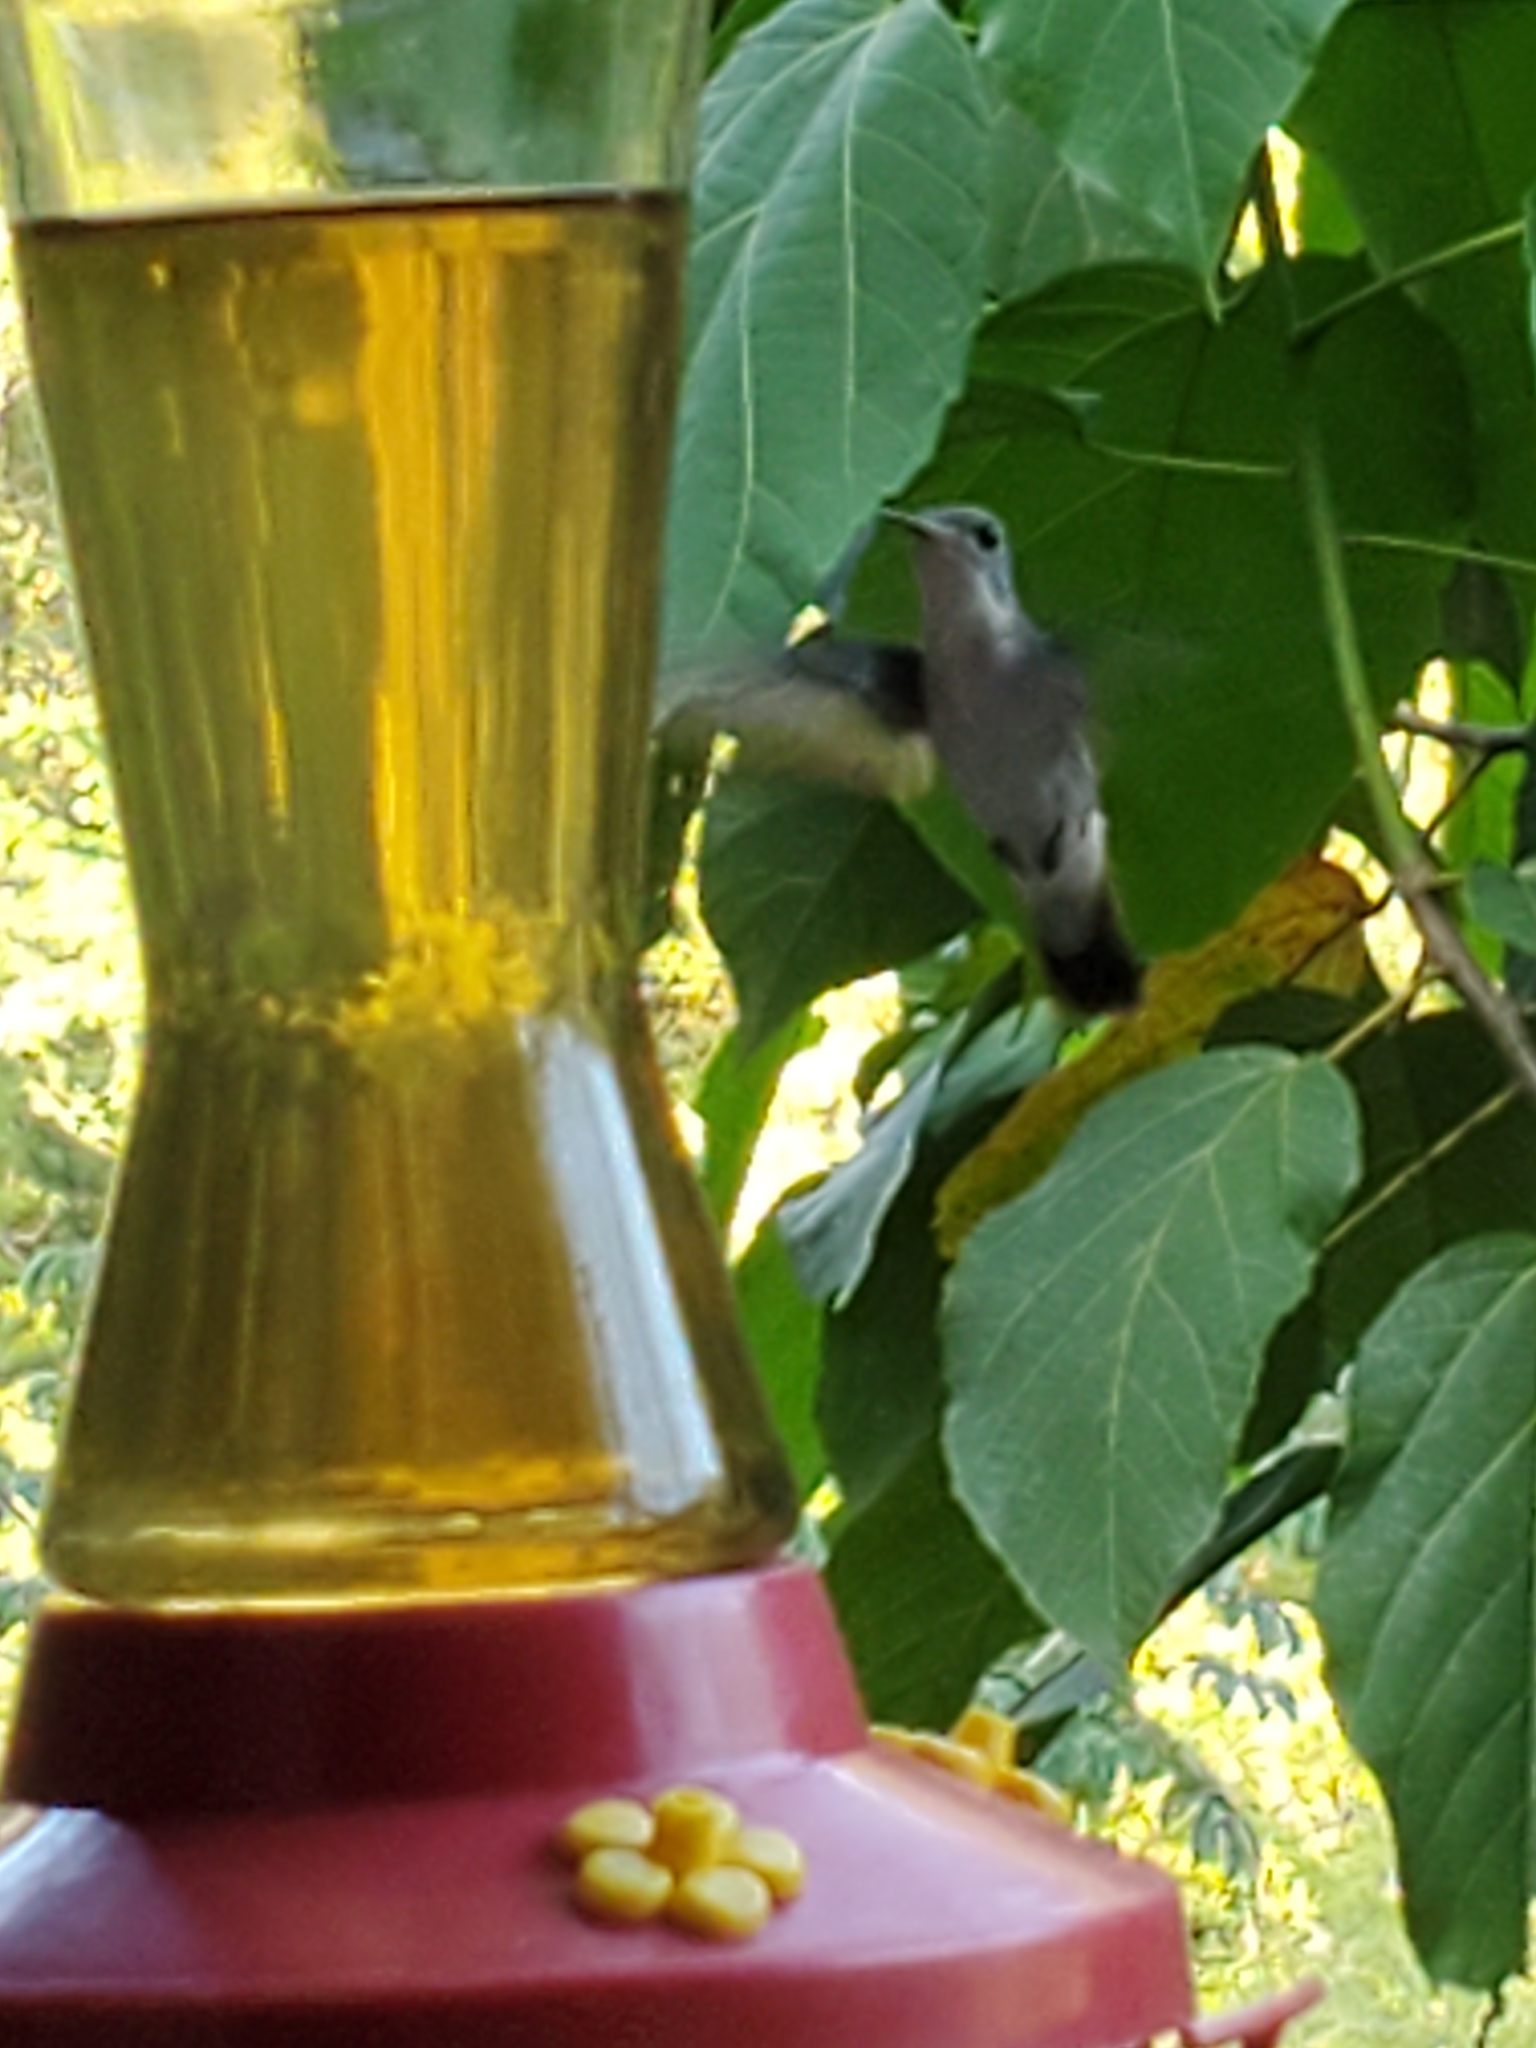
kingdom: Animalia
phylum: Chordata
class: Aves
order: Apodiformes
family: Trochilidae
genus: Chlorestes
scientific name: Chlorestes candida
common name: White-bellied emerald
